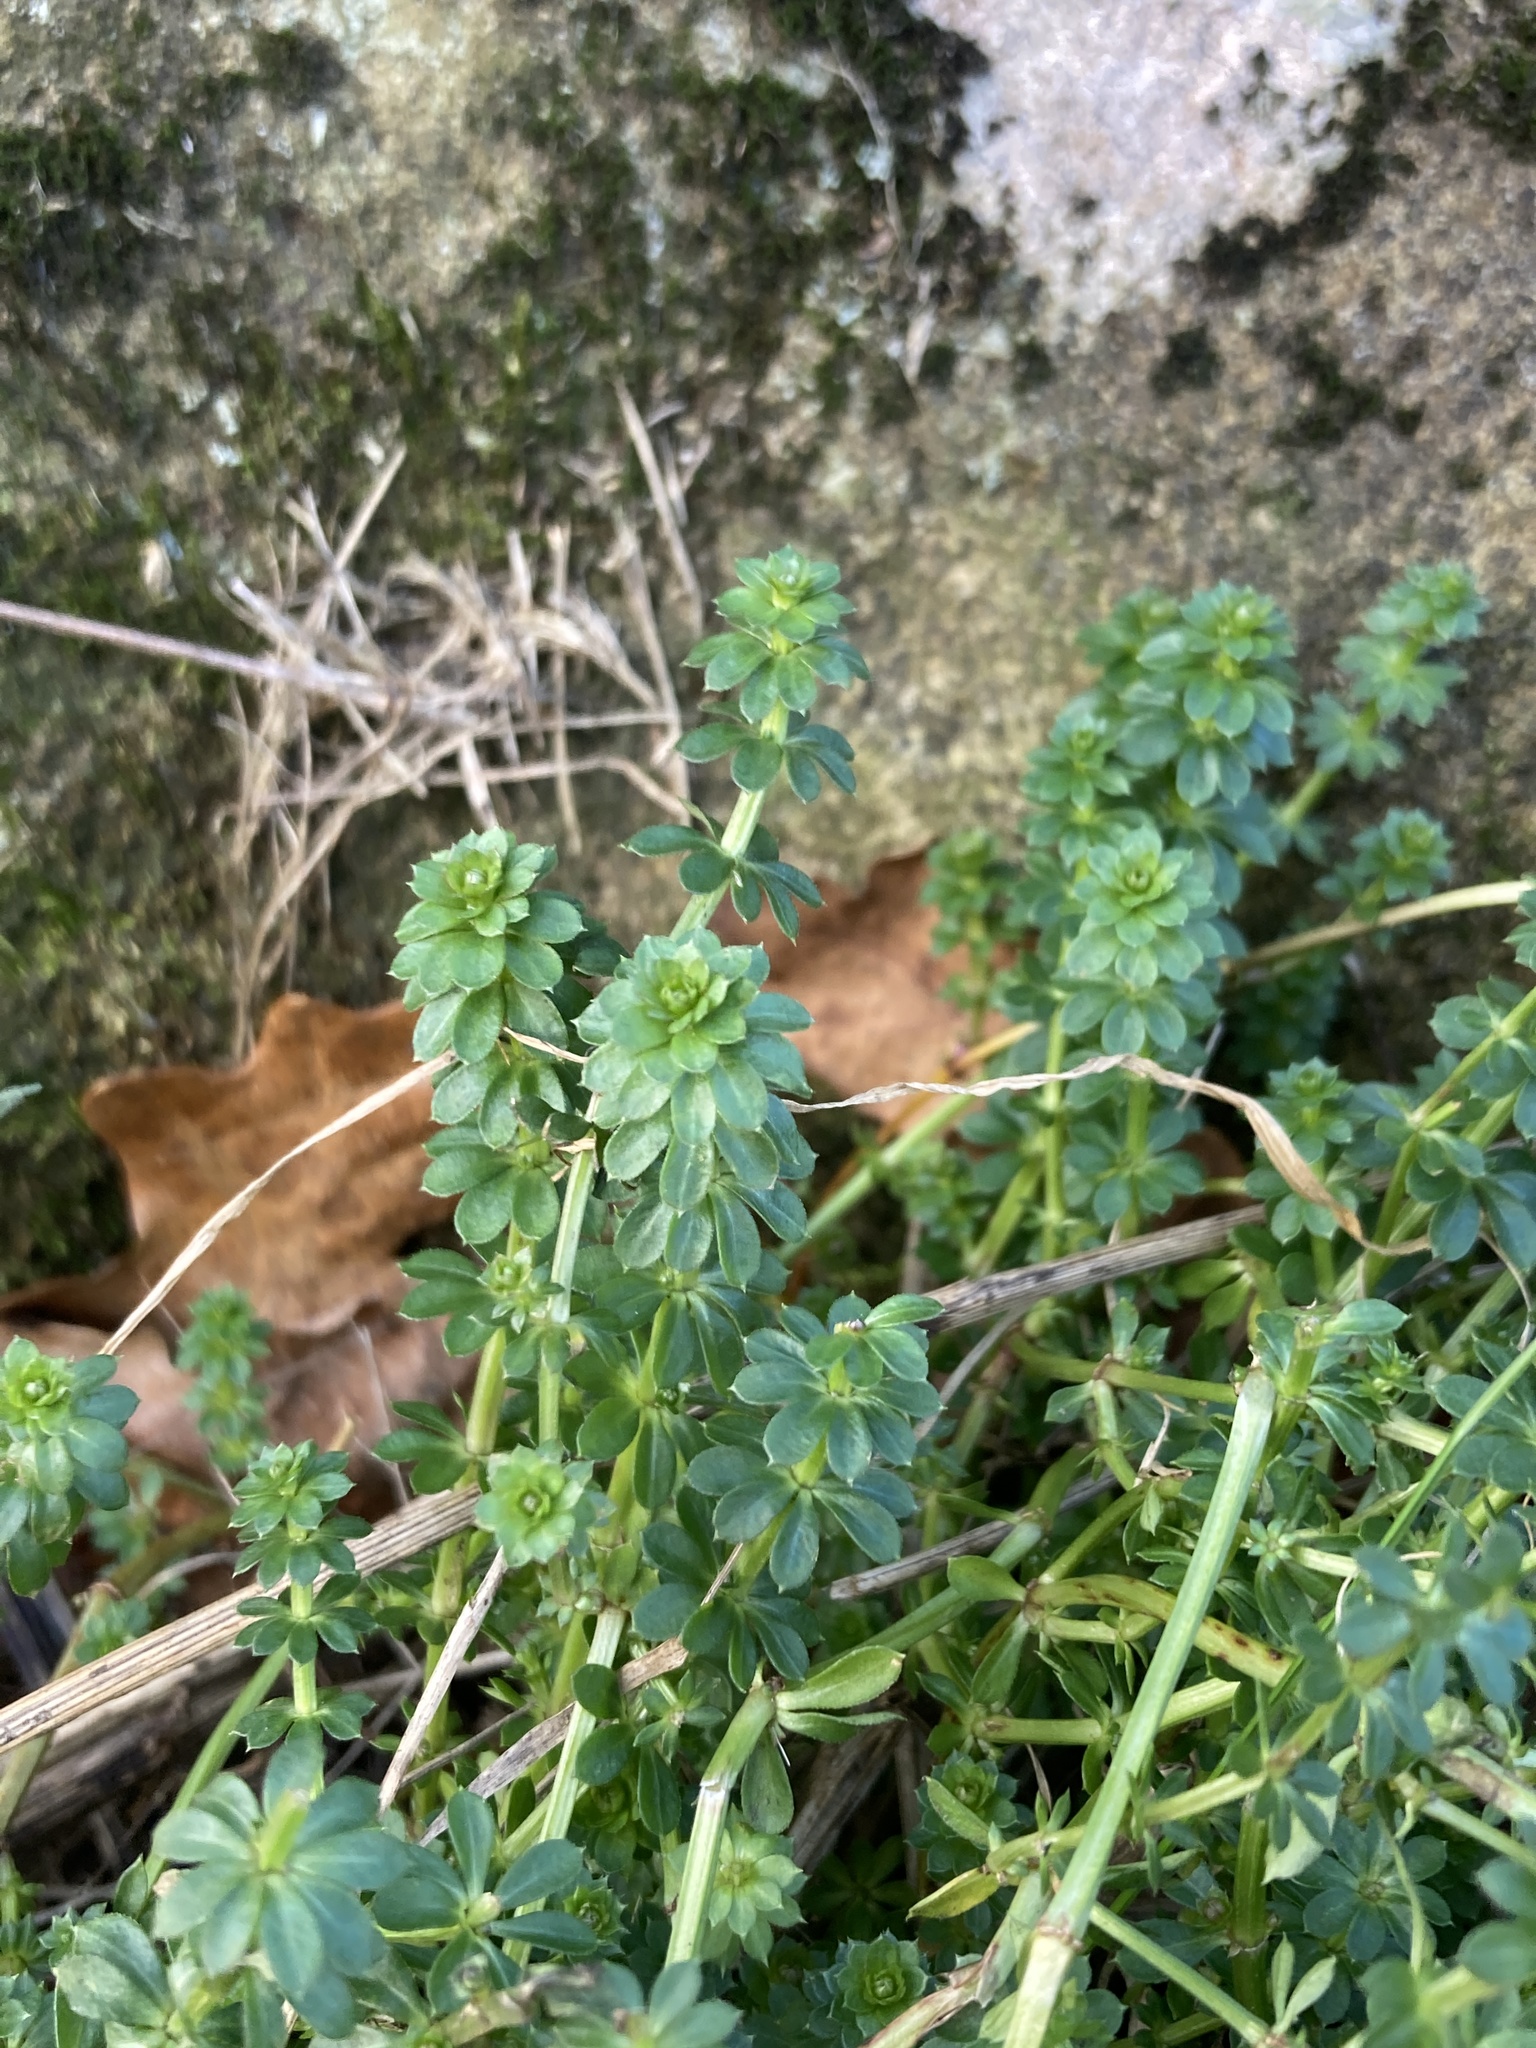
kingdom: Plantae
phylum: Tracheophyta
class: Magnoliopsida
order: Gentianales
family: Rubiaceae
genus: Galium
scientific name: Galium mollugo
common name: Hedge bedstraw
